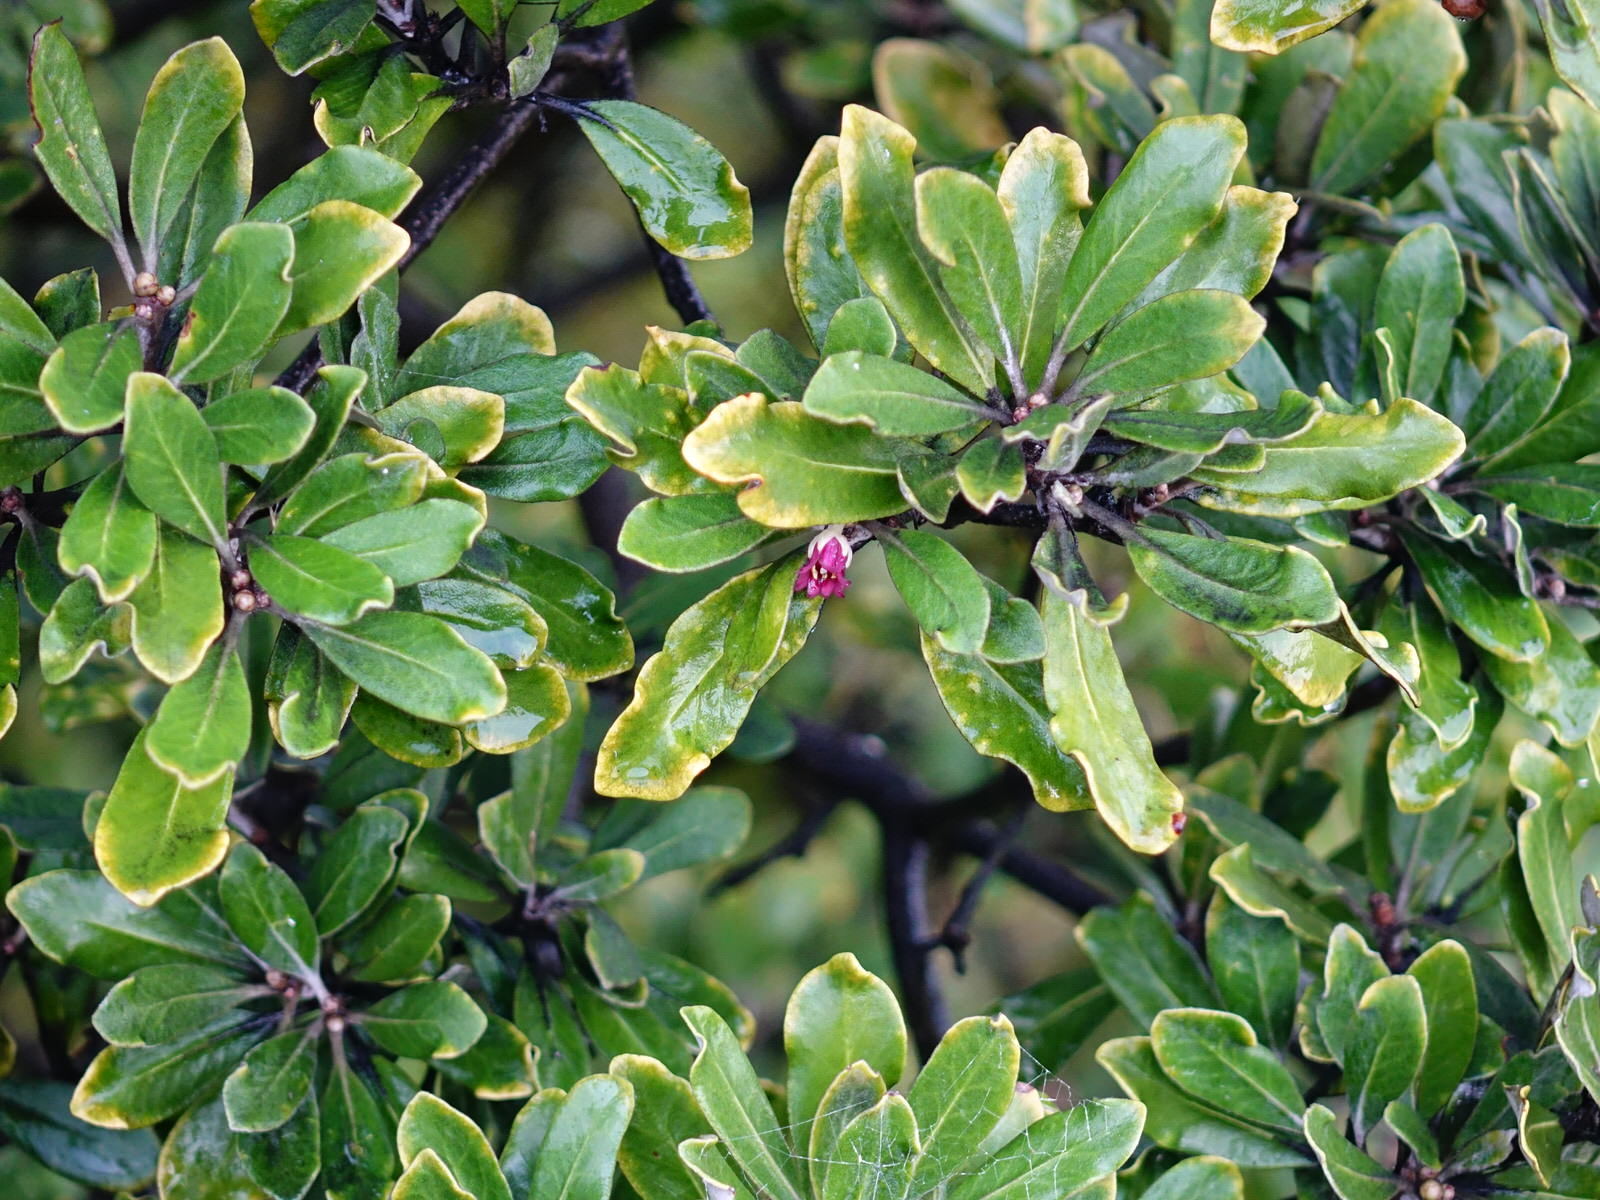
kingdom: Plantae
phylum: Tracheophyta
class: Magnoliopsida
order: Apiales
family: Pittosporaceae
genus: Pittosporum
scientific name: Pittosporum crassifolium
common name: Karo
